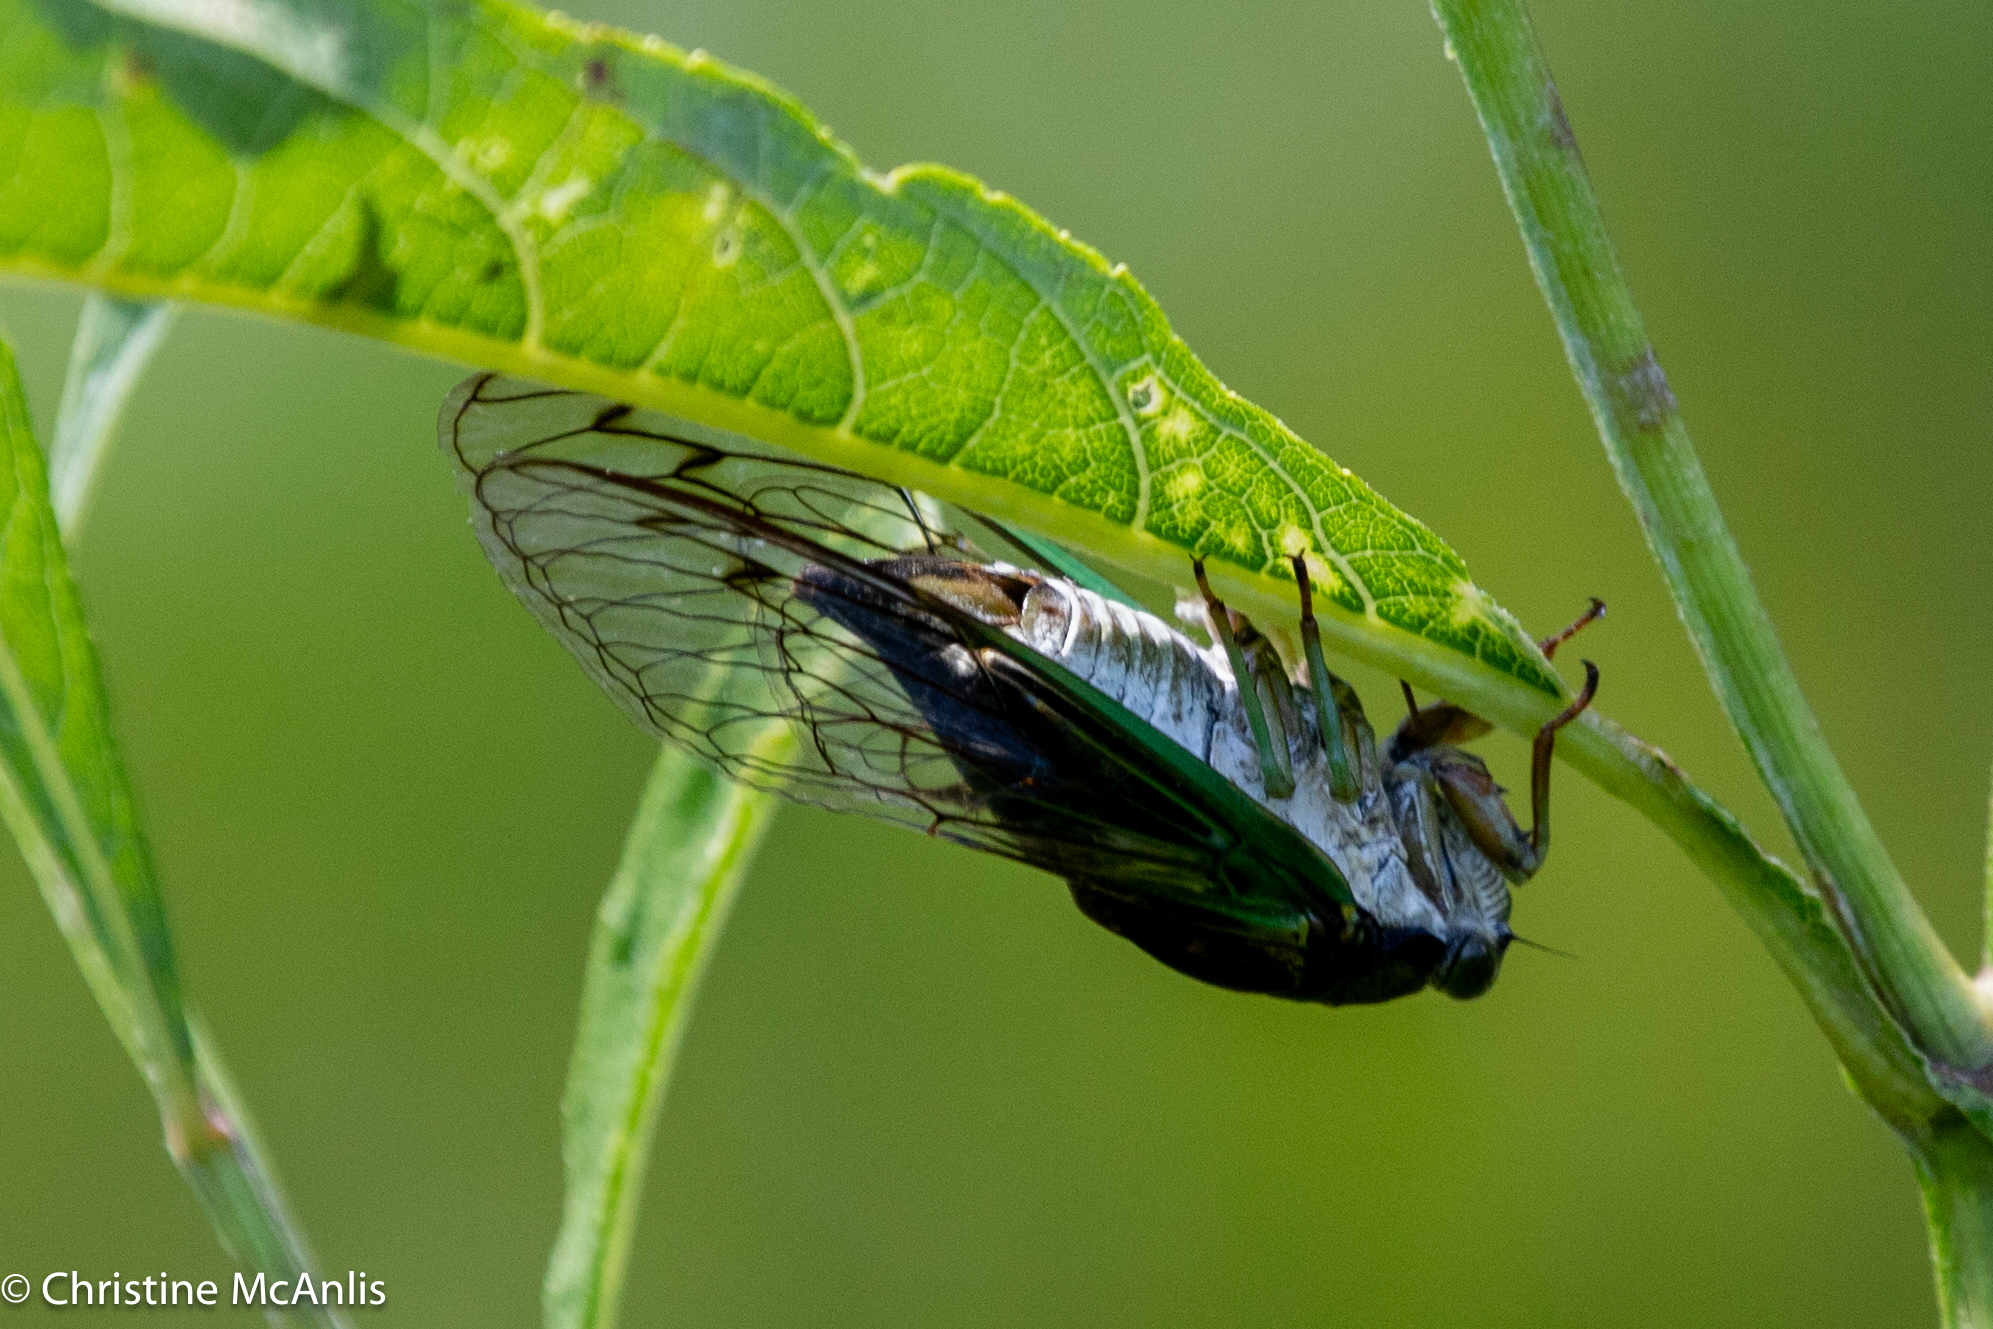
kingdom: Animalia
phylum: Arthropoda
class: Insecta
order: Hemiptera
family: Cicadidae
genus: Neotibicen
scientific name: Neotibicen tibicen
